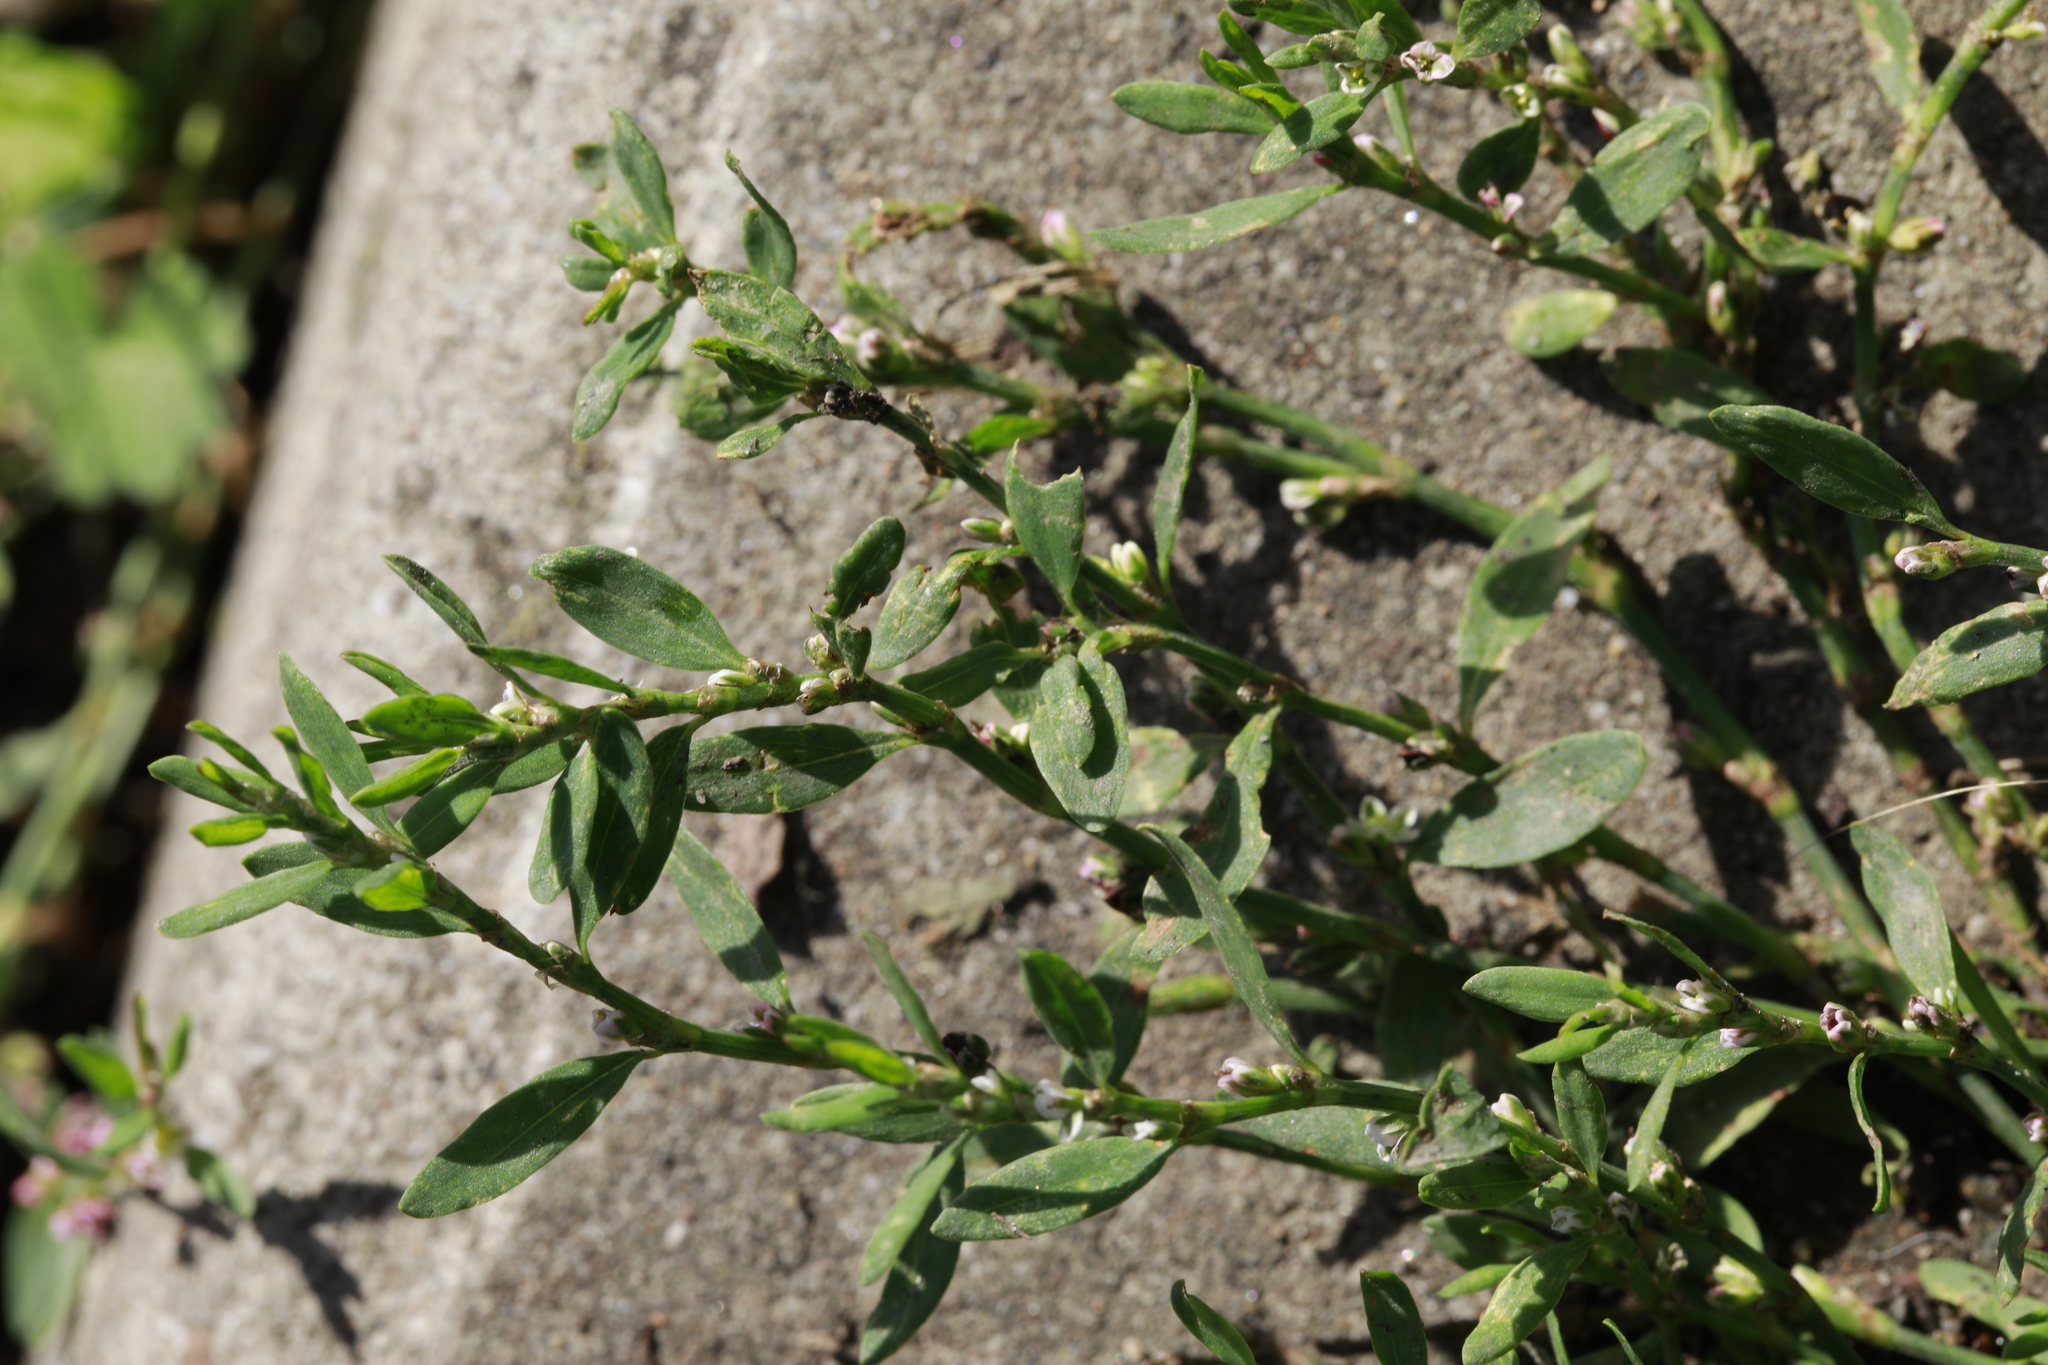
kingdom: Plantae
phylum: Tracheophyta
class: Magnoliopsida
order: Caryophyllales
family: Polygonaceae
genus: Polygonum
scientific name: Polygonum aviculare
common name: Prostrate knotweed
